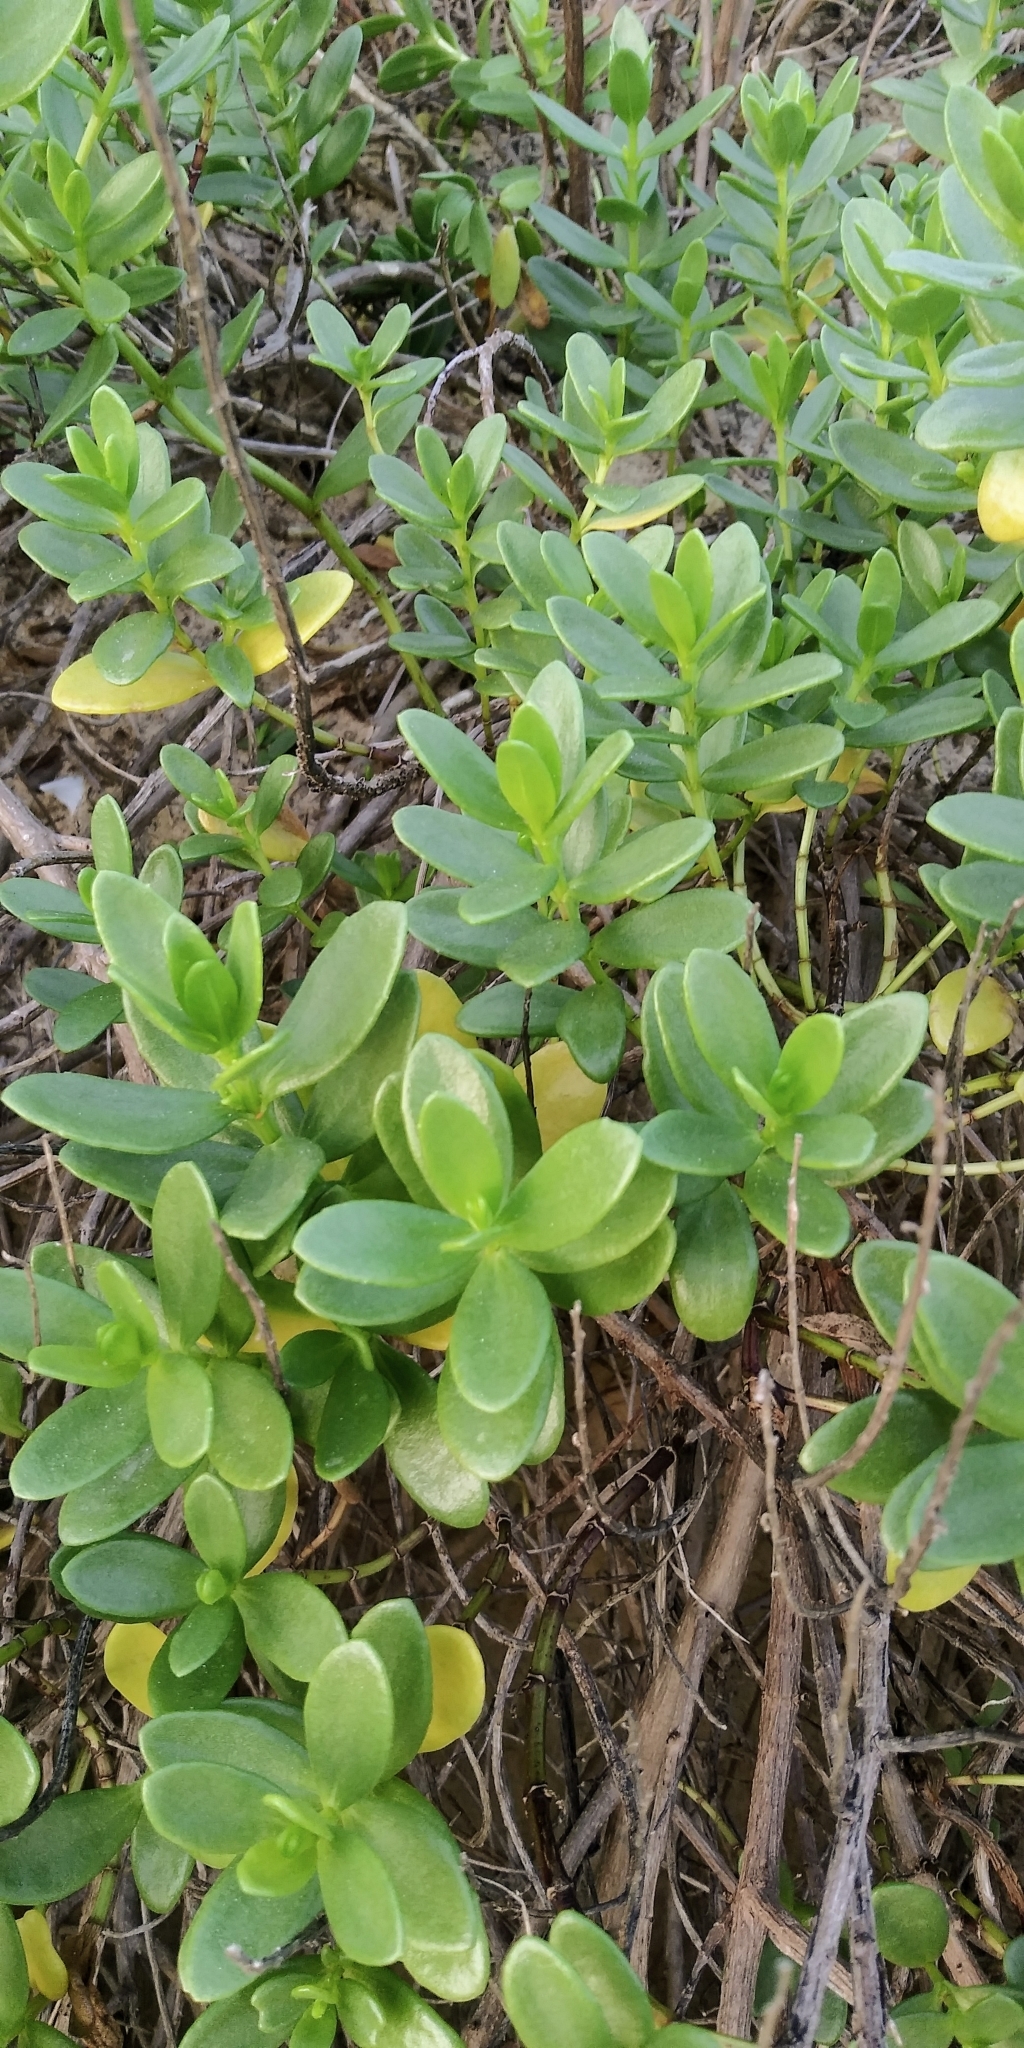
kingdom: Plantae
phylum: Tracheophyta
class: Magnoliopsida
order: Asterales
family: Asteraceae
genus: Iva
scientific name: Iva imbricata
